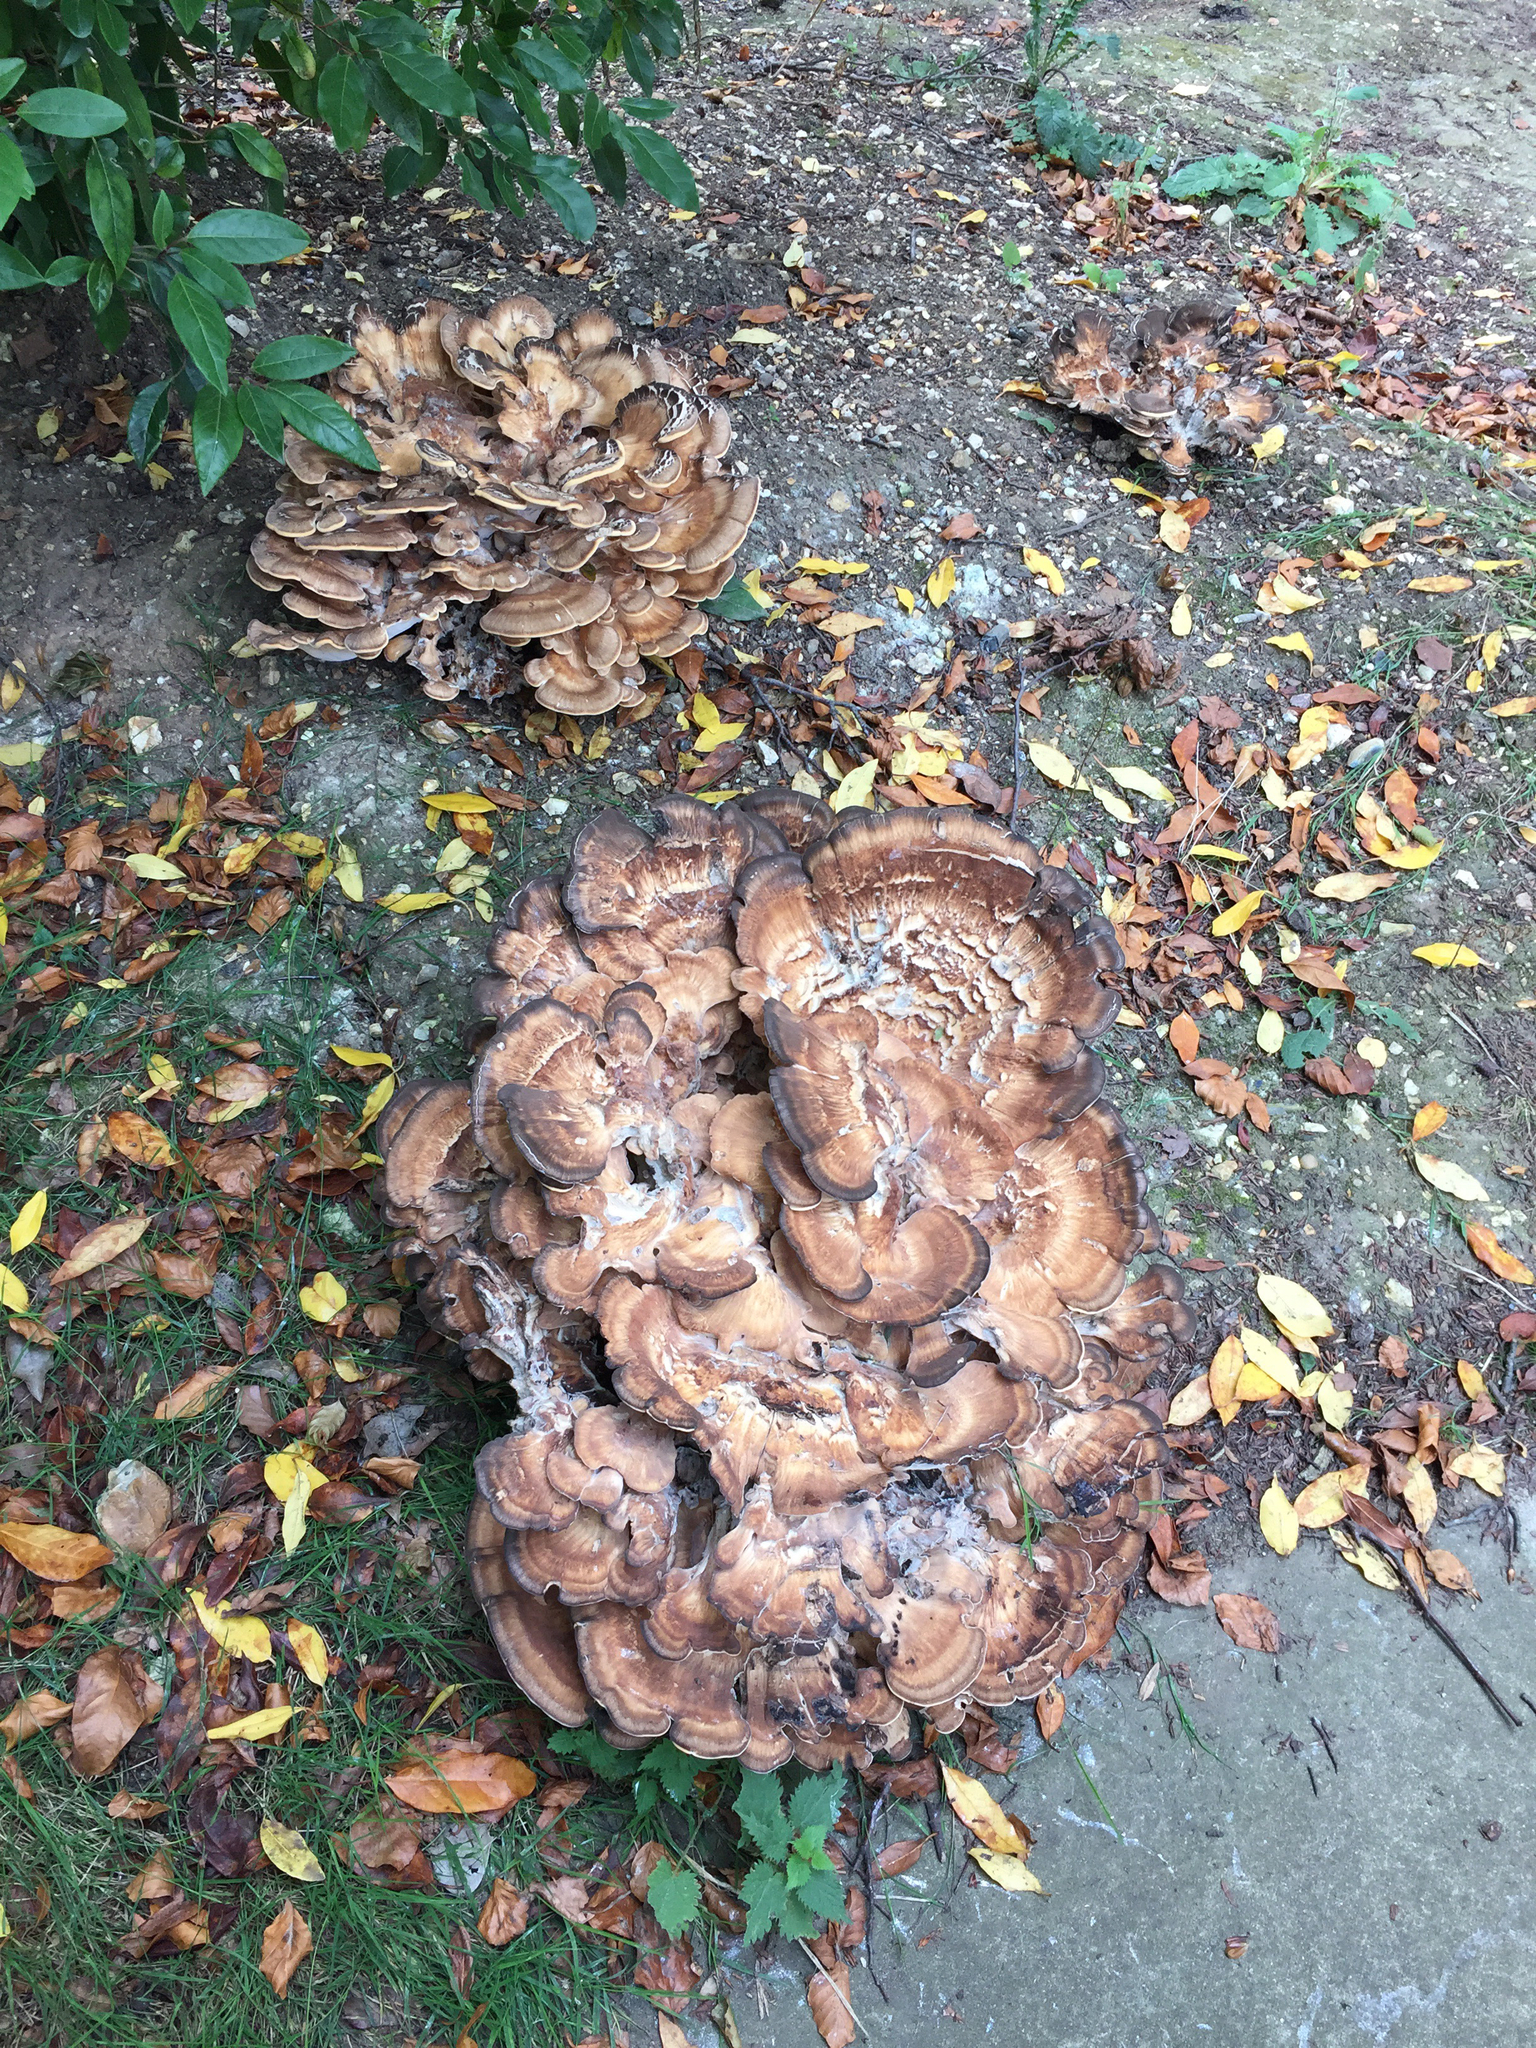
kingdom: Fungi
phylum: Basidiomycota
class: Agaricomycetes
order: Polyporales
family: Meripilaceae
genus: Meripilus
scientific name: Meripilus giganteus
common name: Giant polypore
